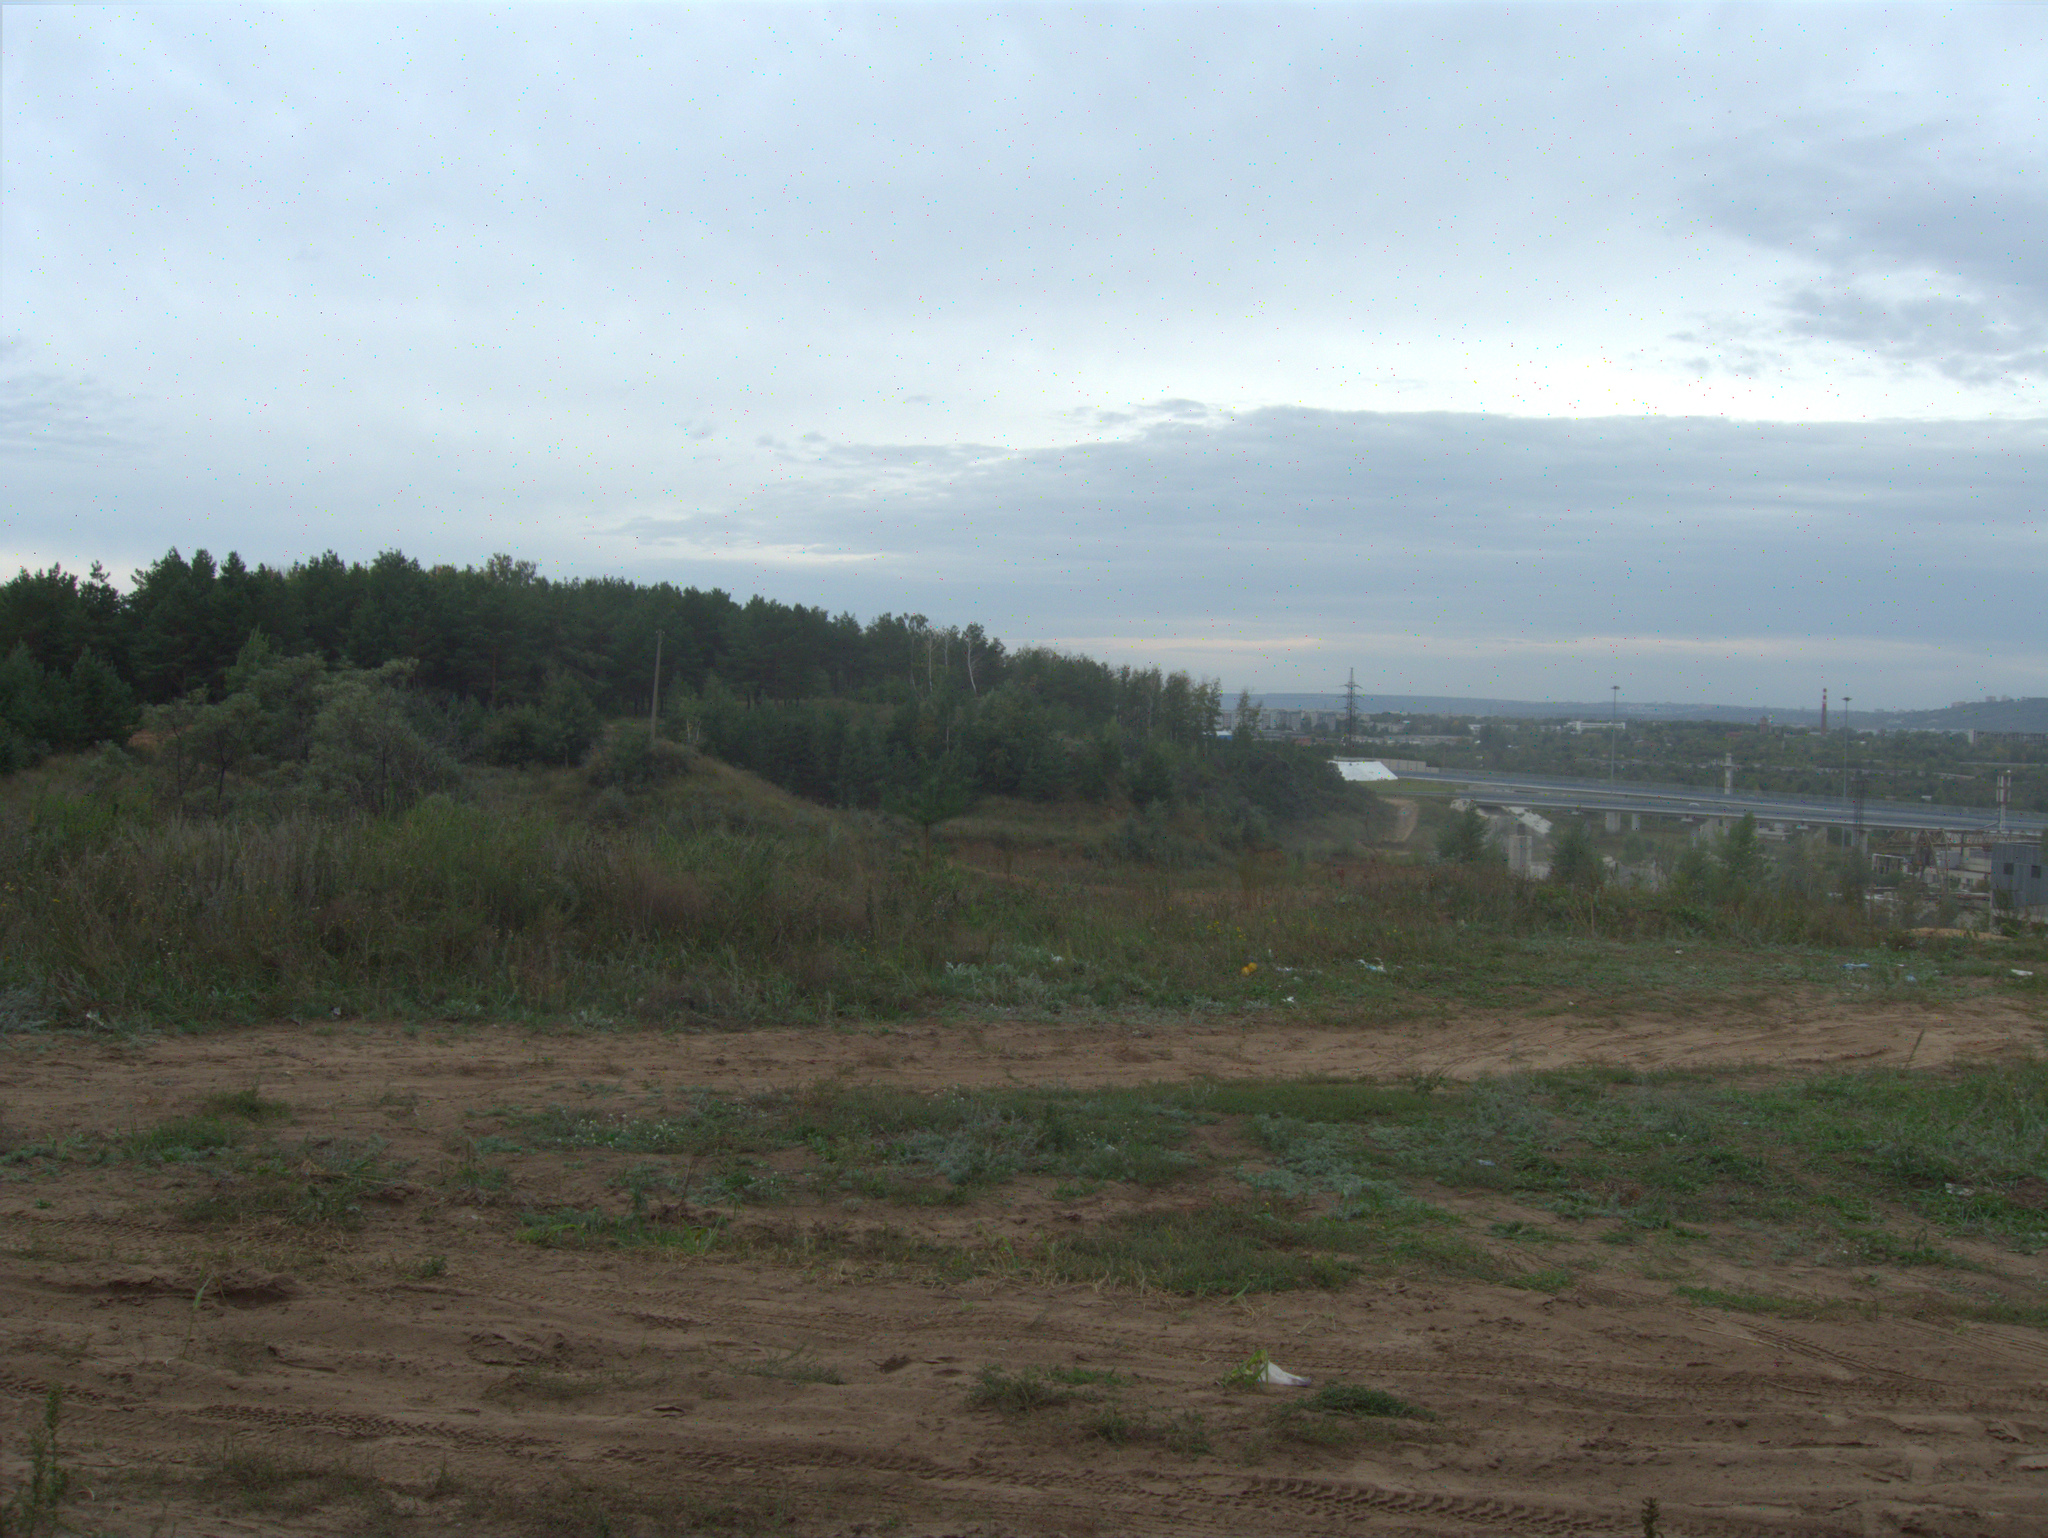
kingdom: Plantae
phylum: Tracheophyta
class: Pinopsida
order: Pinales
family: Pinaceae
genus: Pinus
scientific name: Pinus sylvestris
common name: Scots pine
